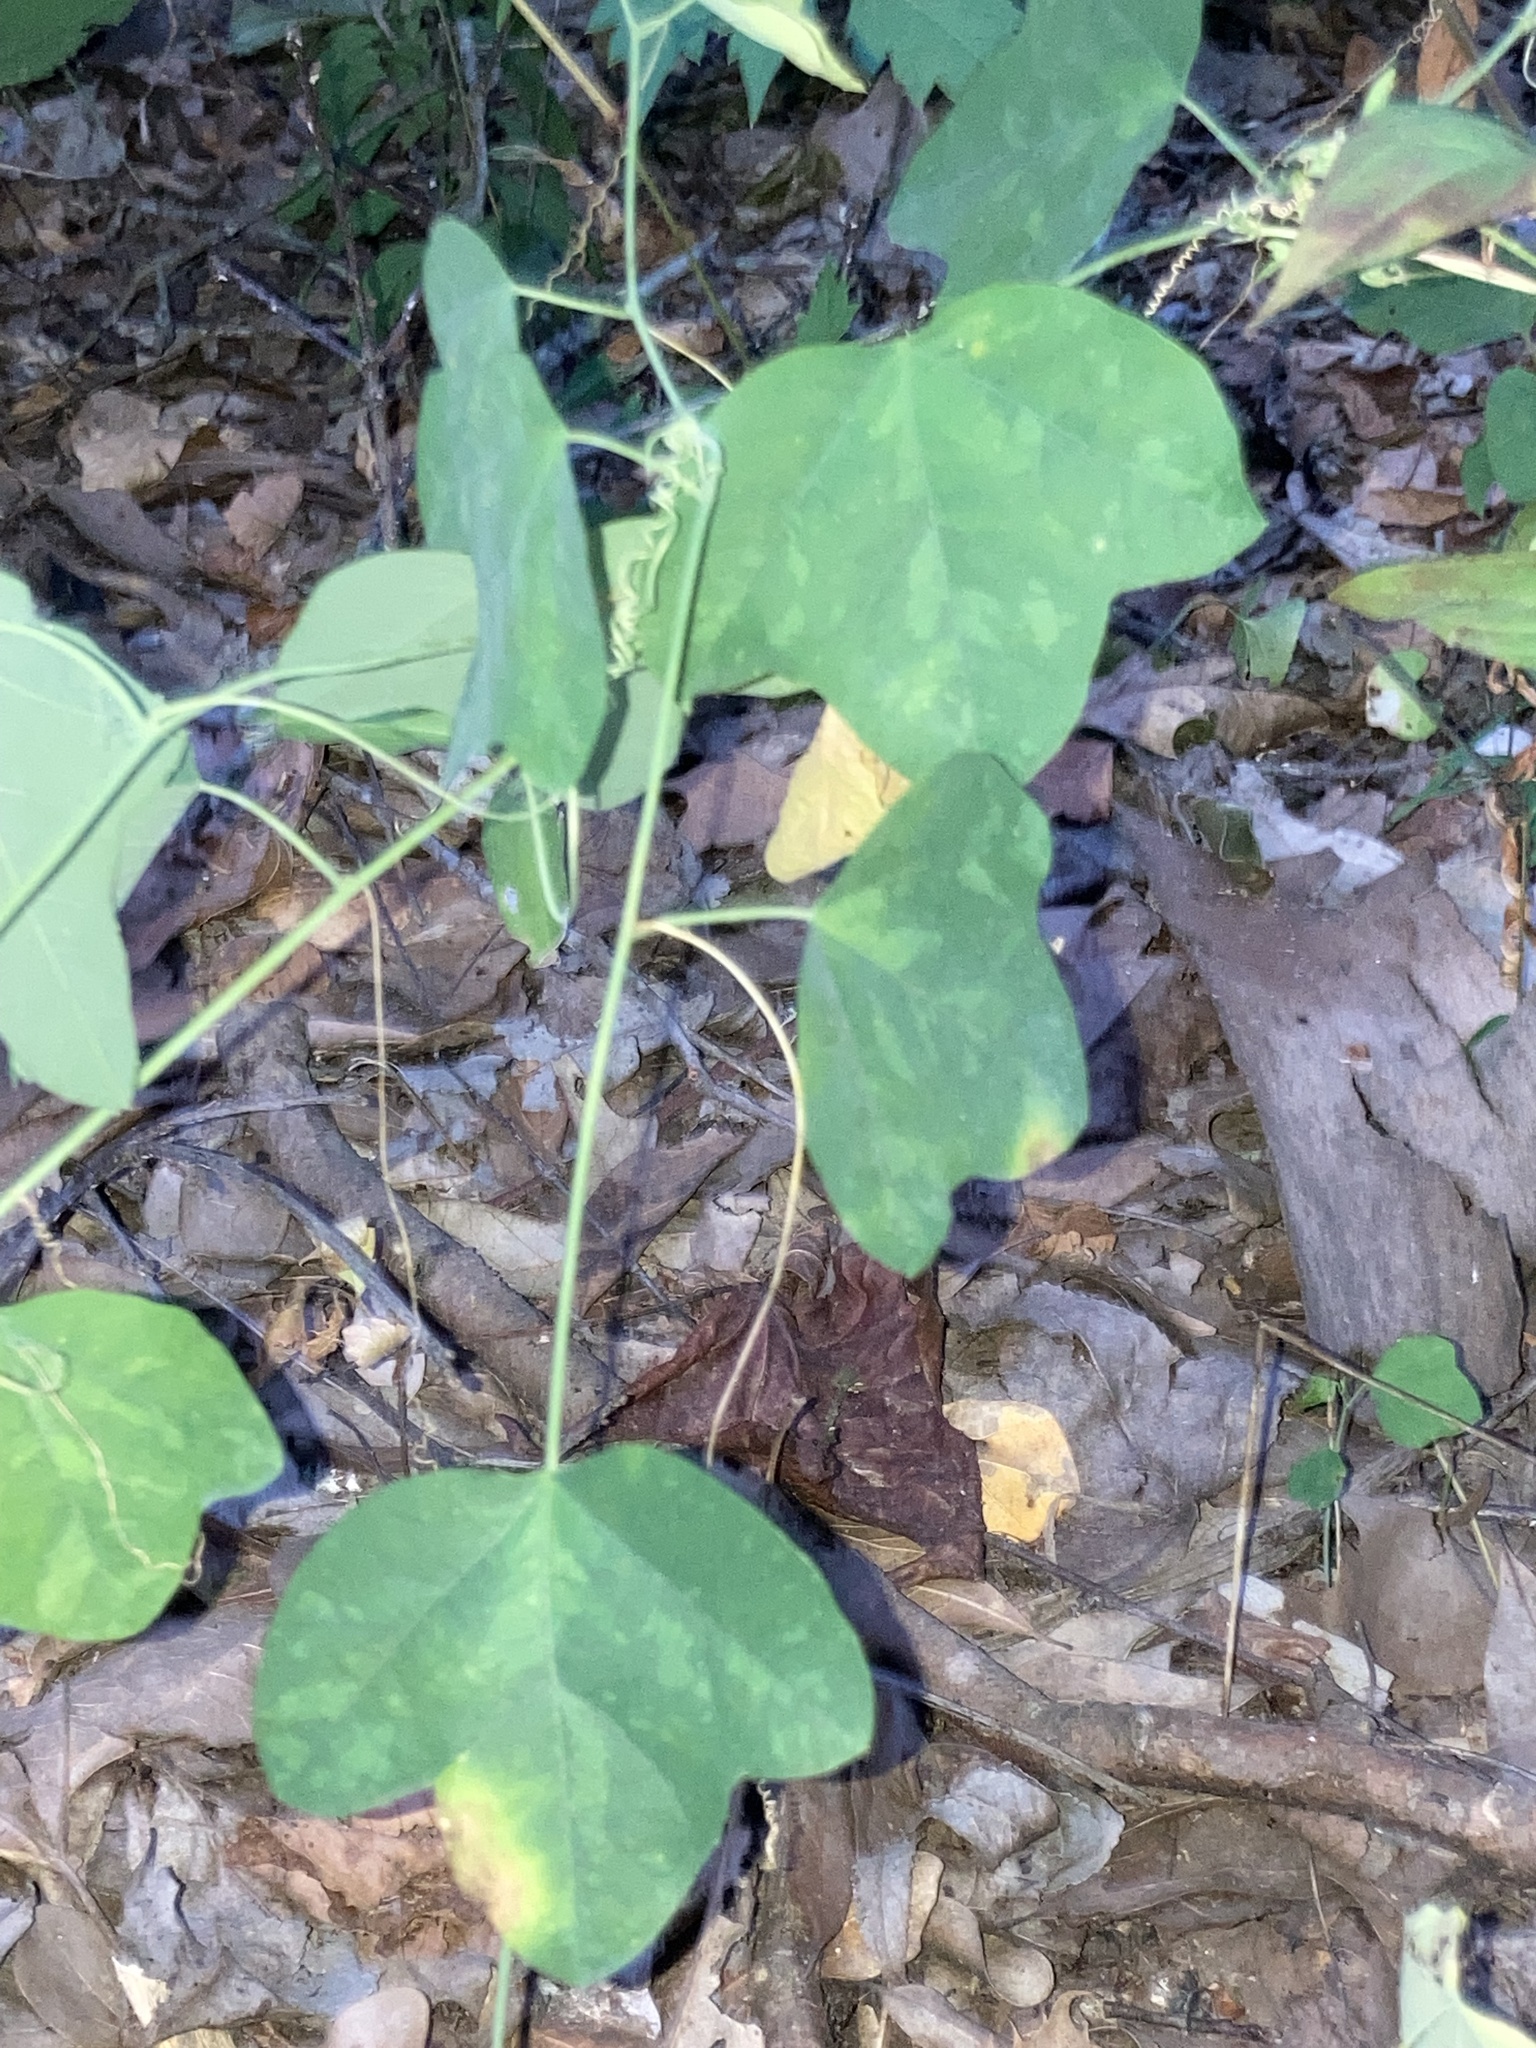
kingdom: Plantae
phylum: Tracheophyta
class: Magnoliopsida
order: Malpighiales
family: Passifloraceae
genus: Passiflora
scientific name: Passiflora lutea
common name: Yellow passionflower
